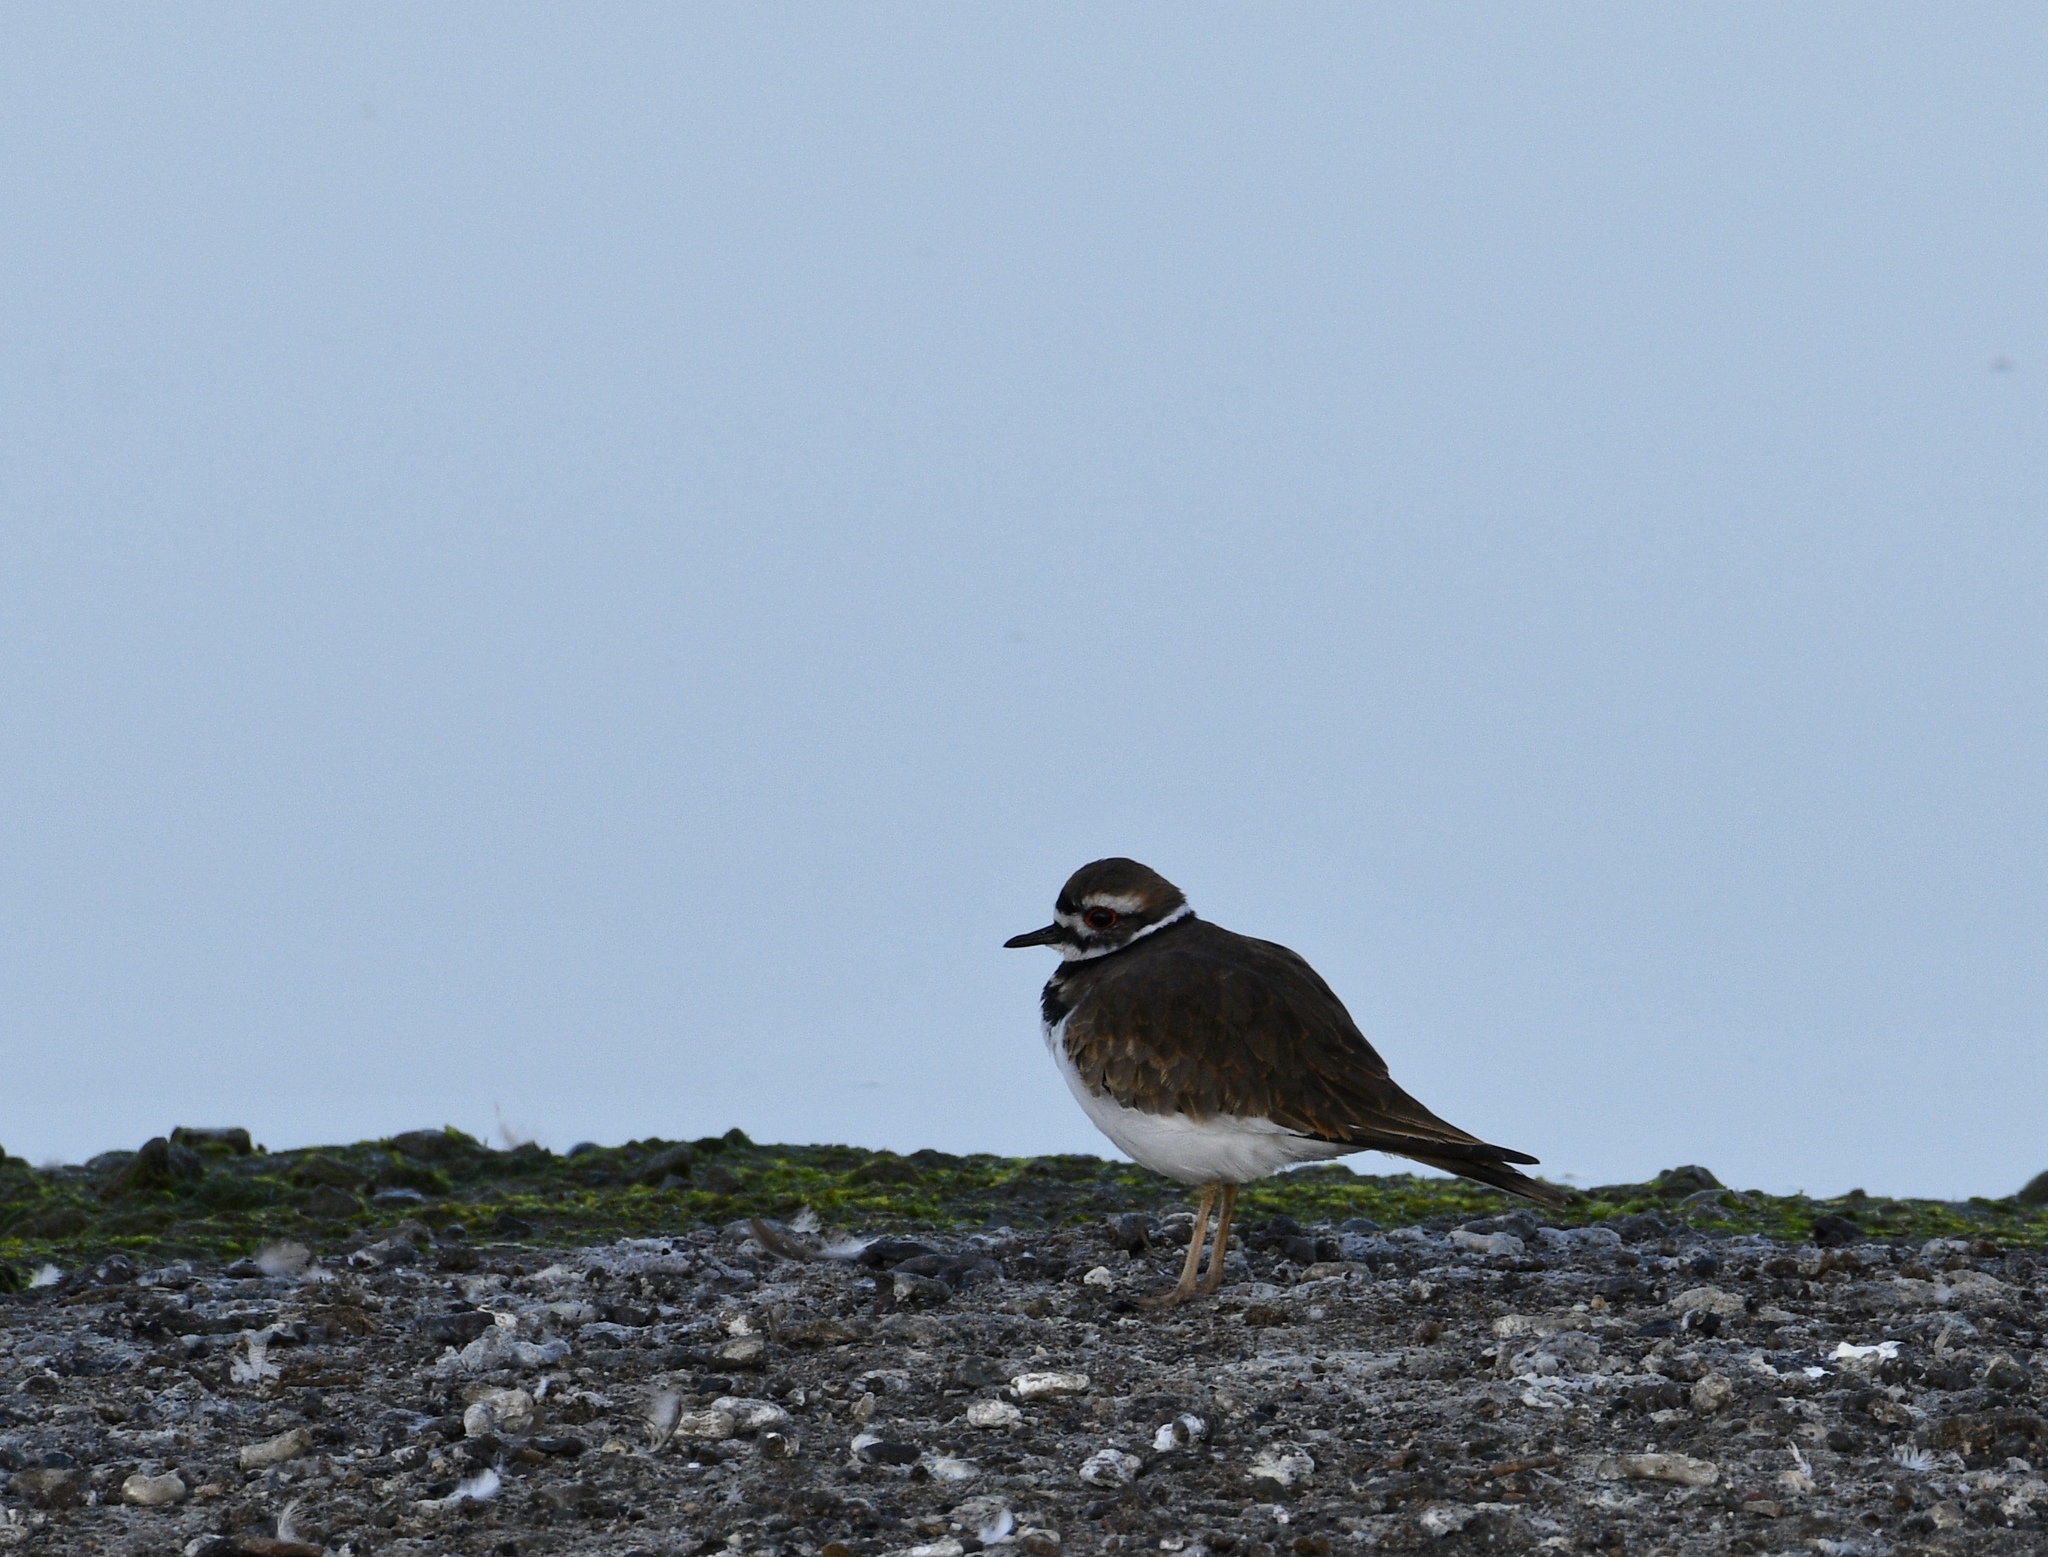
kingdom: Animalia
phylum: Chordata
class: Aves
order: Charadriiformes
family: Charadriidae
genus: Charadrius
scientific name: Charadrius vociferus
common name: Killdeer
